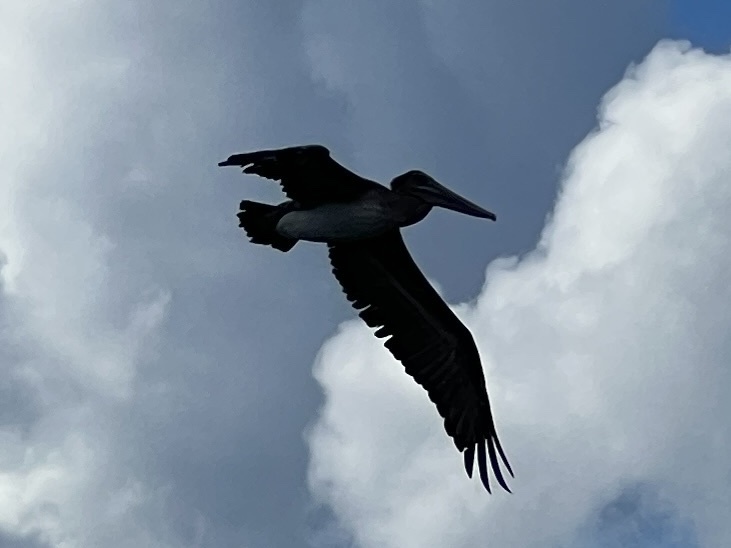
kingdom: Animalia
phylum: Chordata
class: Aves
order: Pelecaniformes
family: Pelecanidae
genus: Pelecanus
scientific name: Pelecanus occidentalis
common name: Brown pelican
